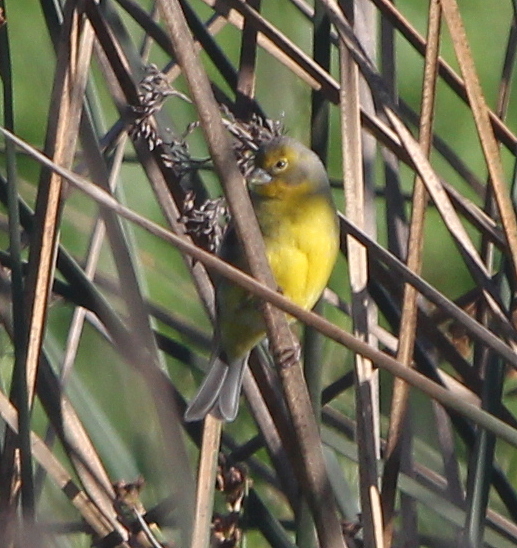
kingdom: Animalia
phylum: Chordata
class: Aves
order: Passeriformes
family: Thraupidae
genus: Sicalis
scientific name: Sicalis luteola
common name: Grassland yellow-finch
